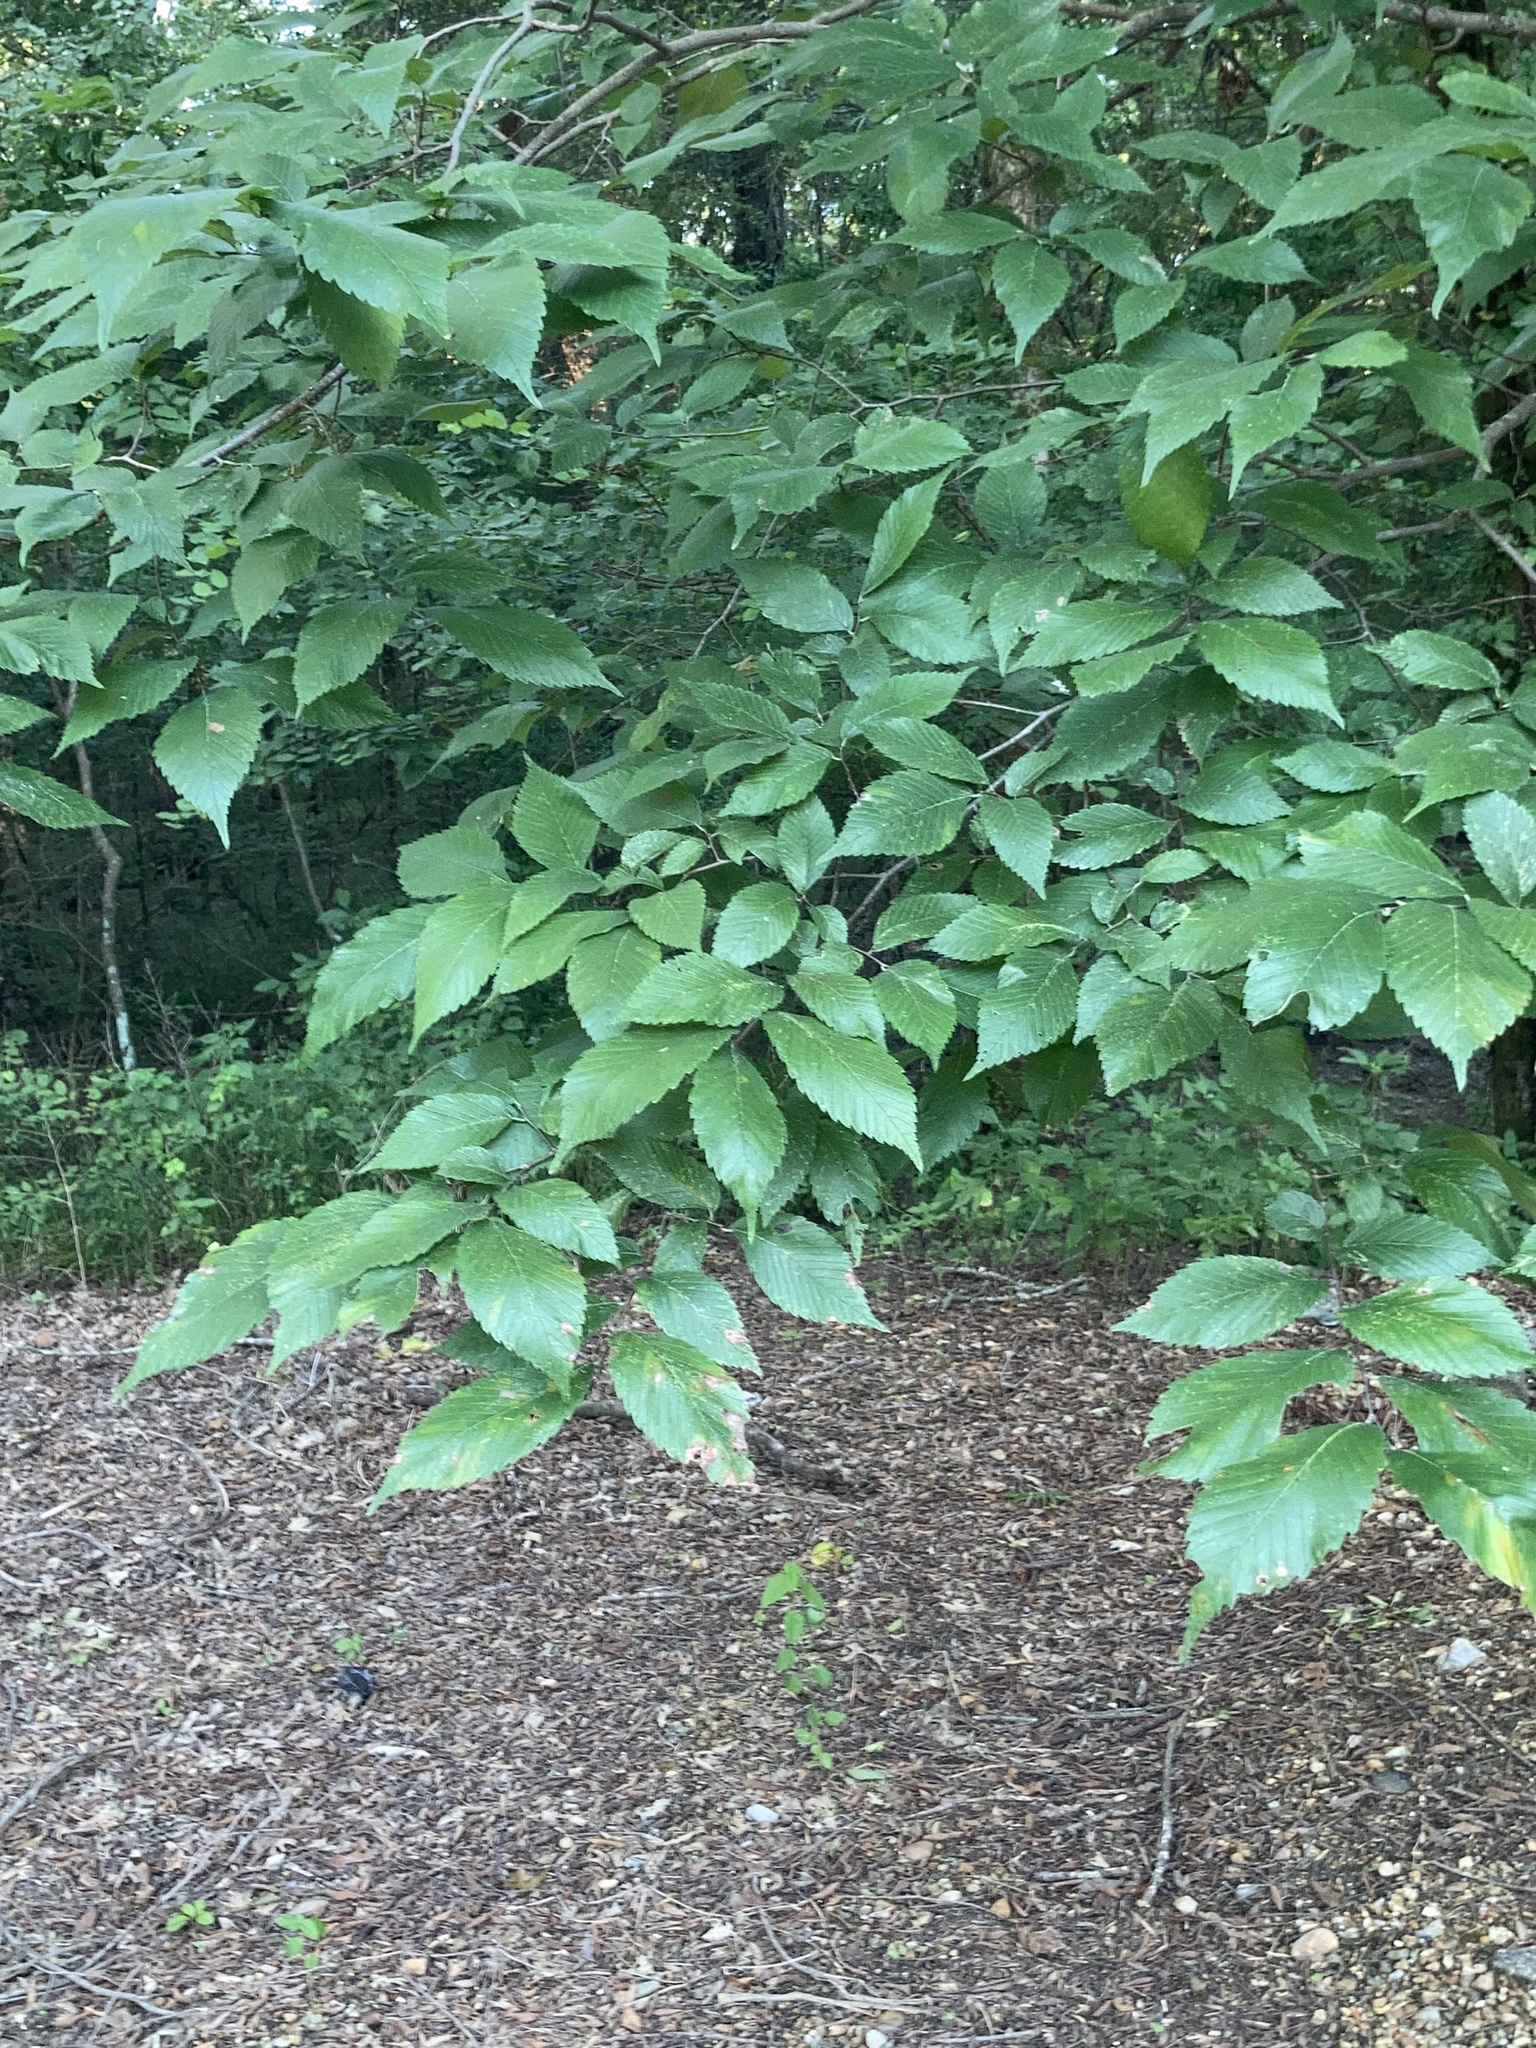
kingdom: Plantae
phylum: Tracheophyta
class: Magnoliopsida
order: Fagales
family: Fagaceae
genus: Fagus
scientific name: Fagus grandifolia
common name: American beech
